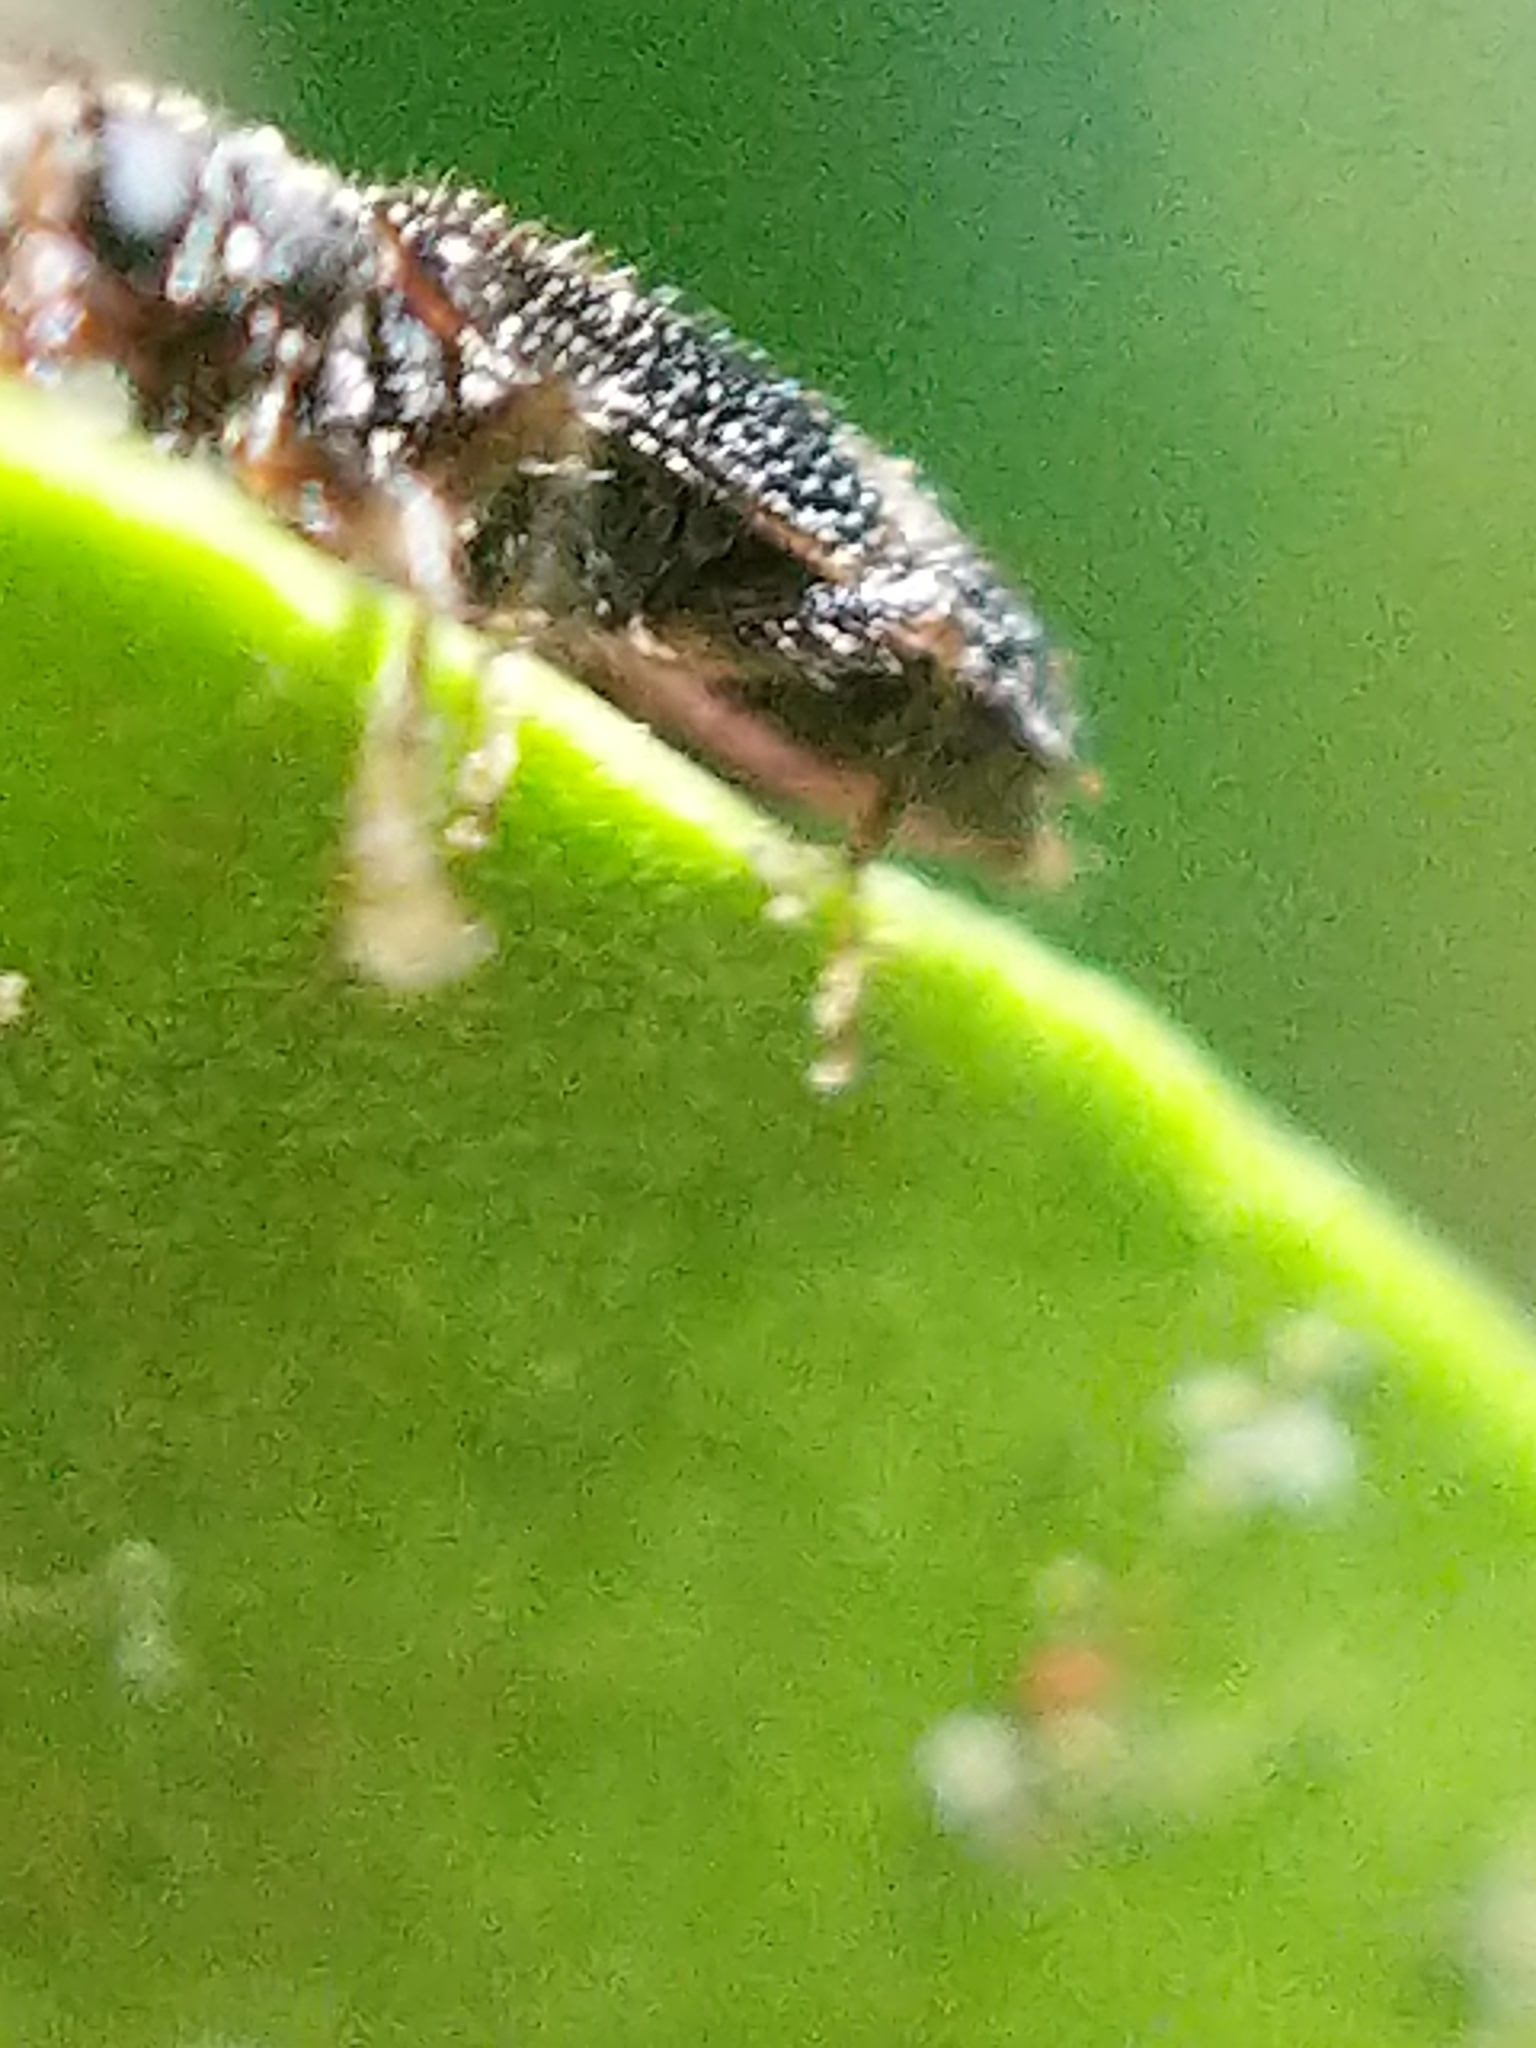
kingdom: Animalia
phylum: Arthropoda
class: Insecta
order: Coleoptera
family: Cleridae
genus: Madoniella
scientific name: Madoniella dislocata
